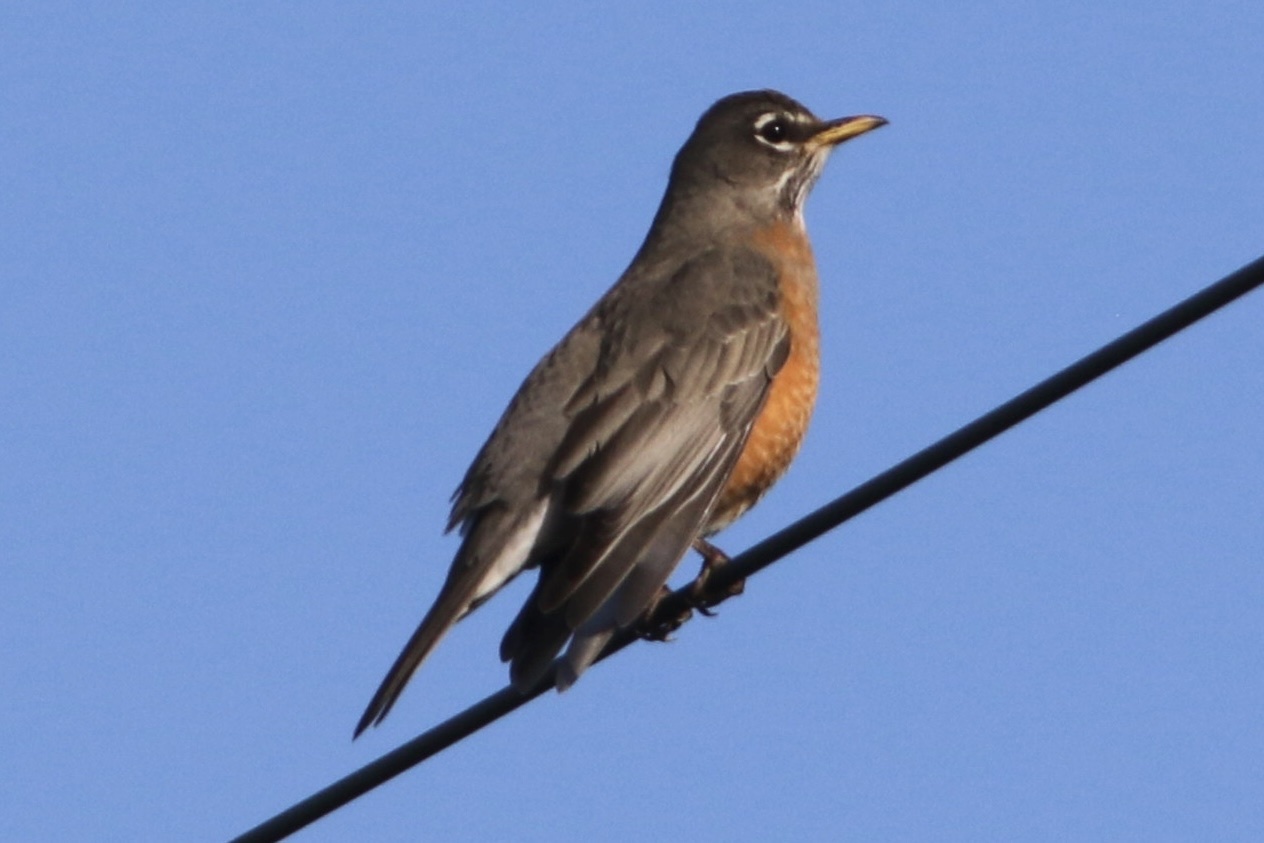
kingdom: Animalia
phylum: Chordata
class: Aves
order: Passeriformes
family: Turdidae
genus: Turdus
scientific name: Turdus migratorius
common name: American robin
